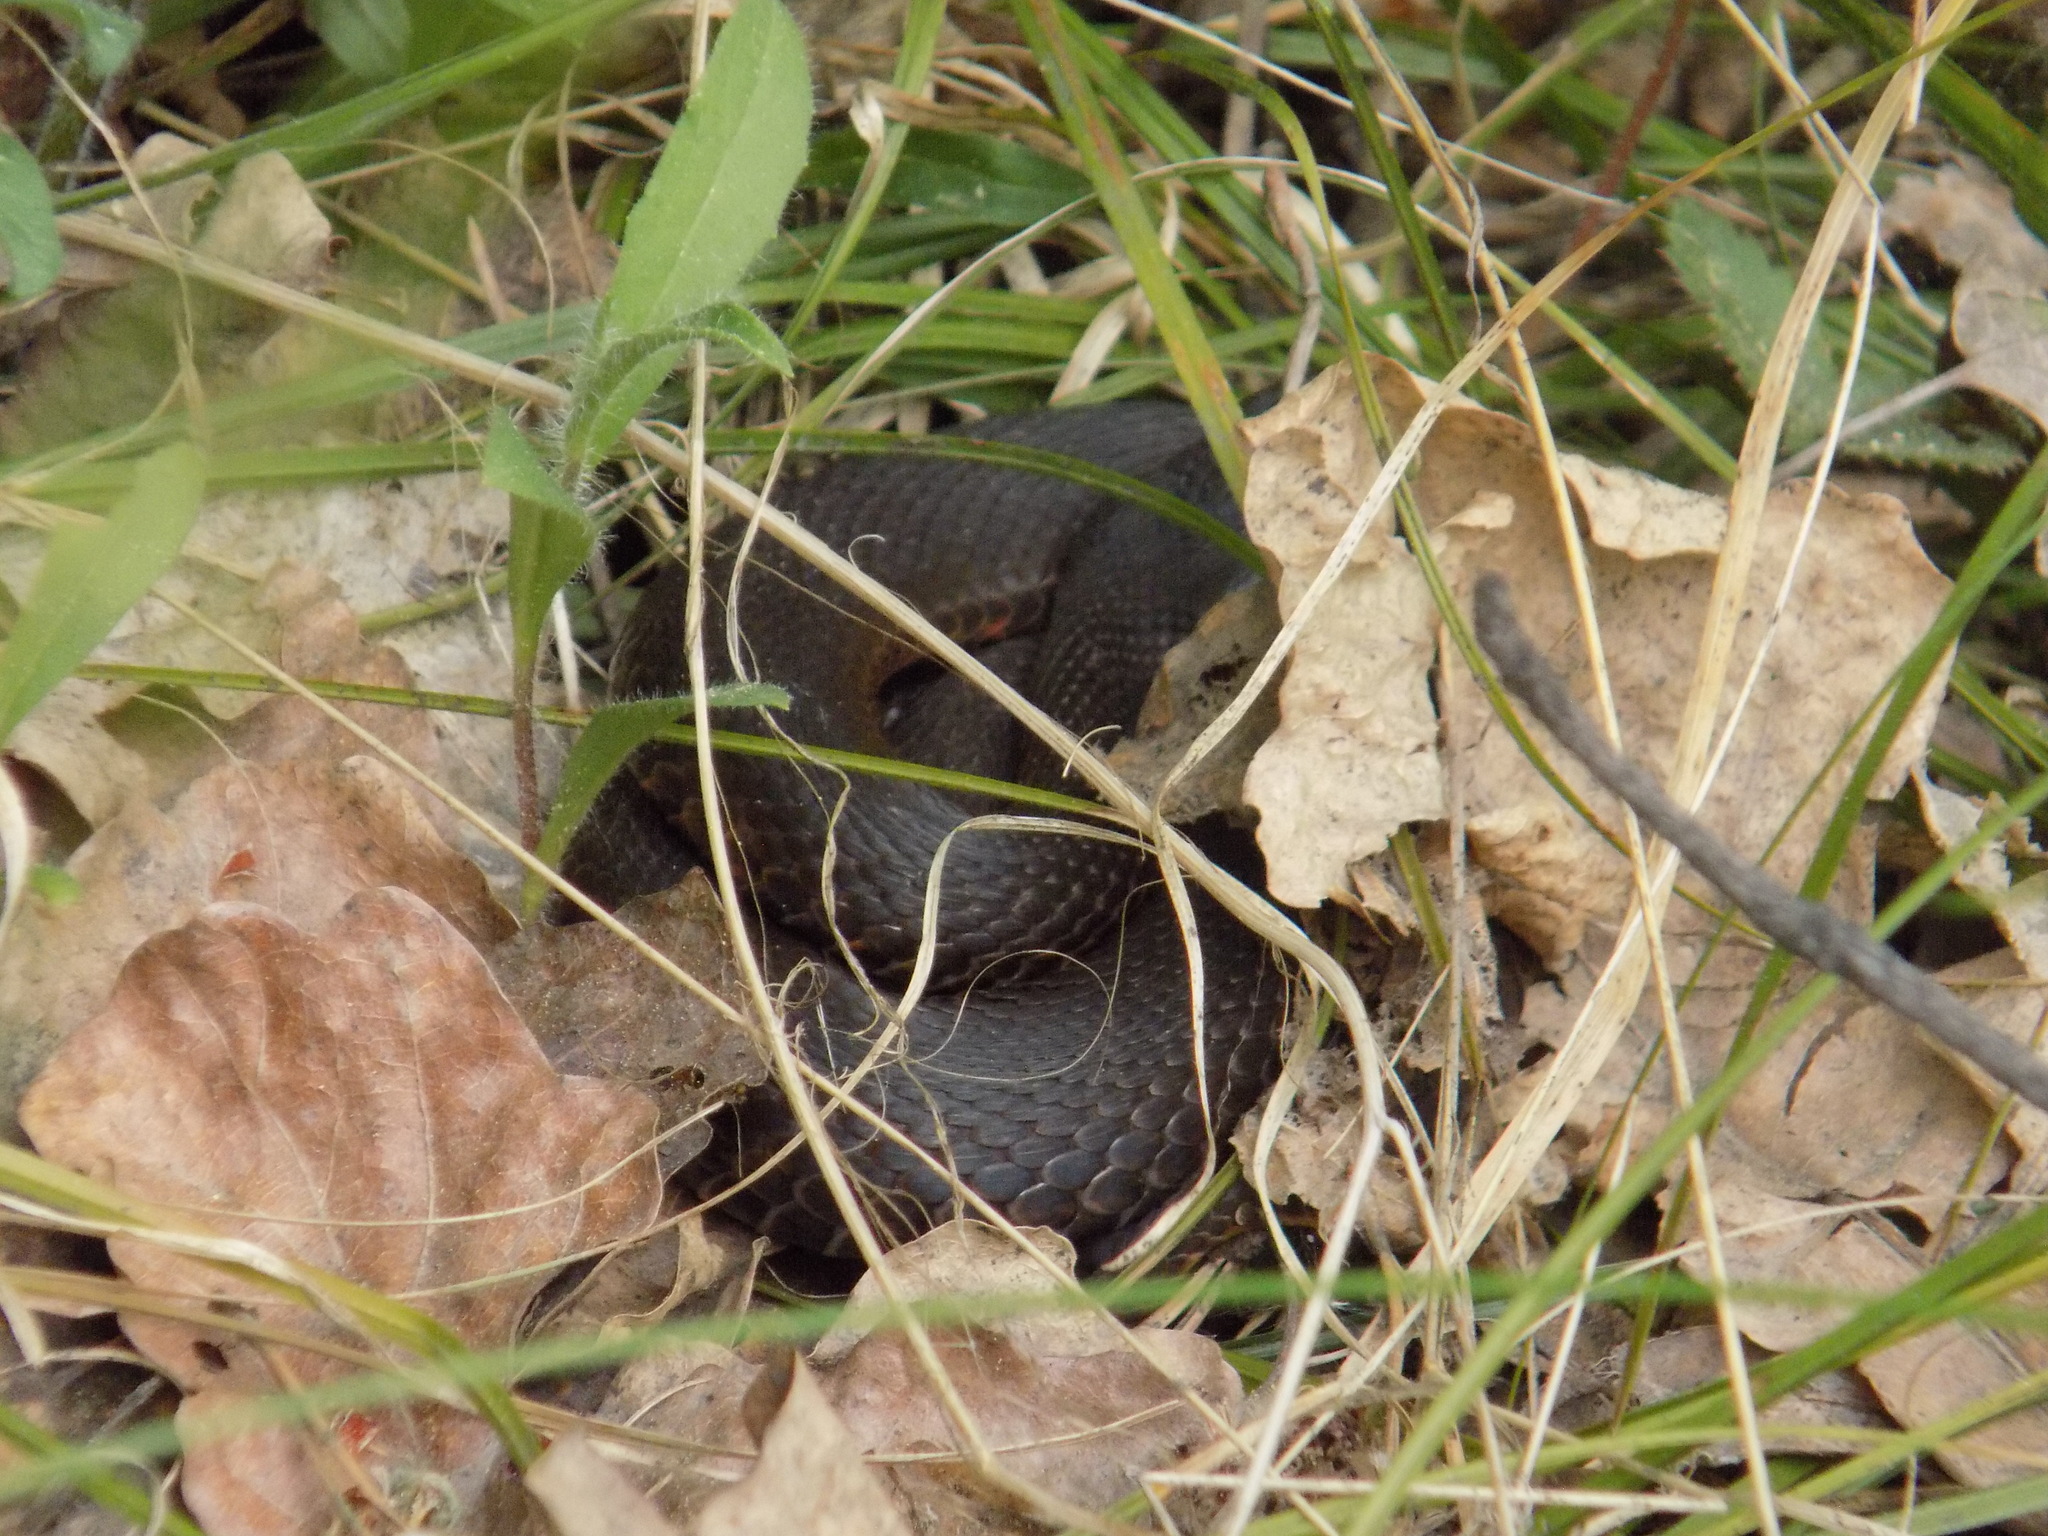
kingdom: Animalia
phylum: Chordata
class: Squamata
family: Viperidae
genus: Vipera
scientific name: Vipera berus
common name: Adder
